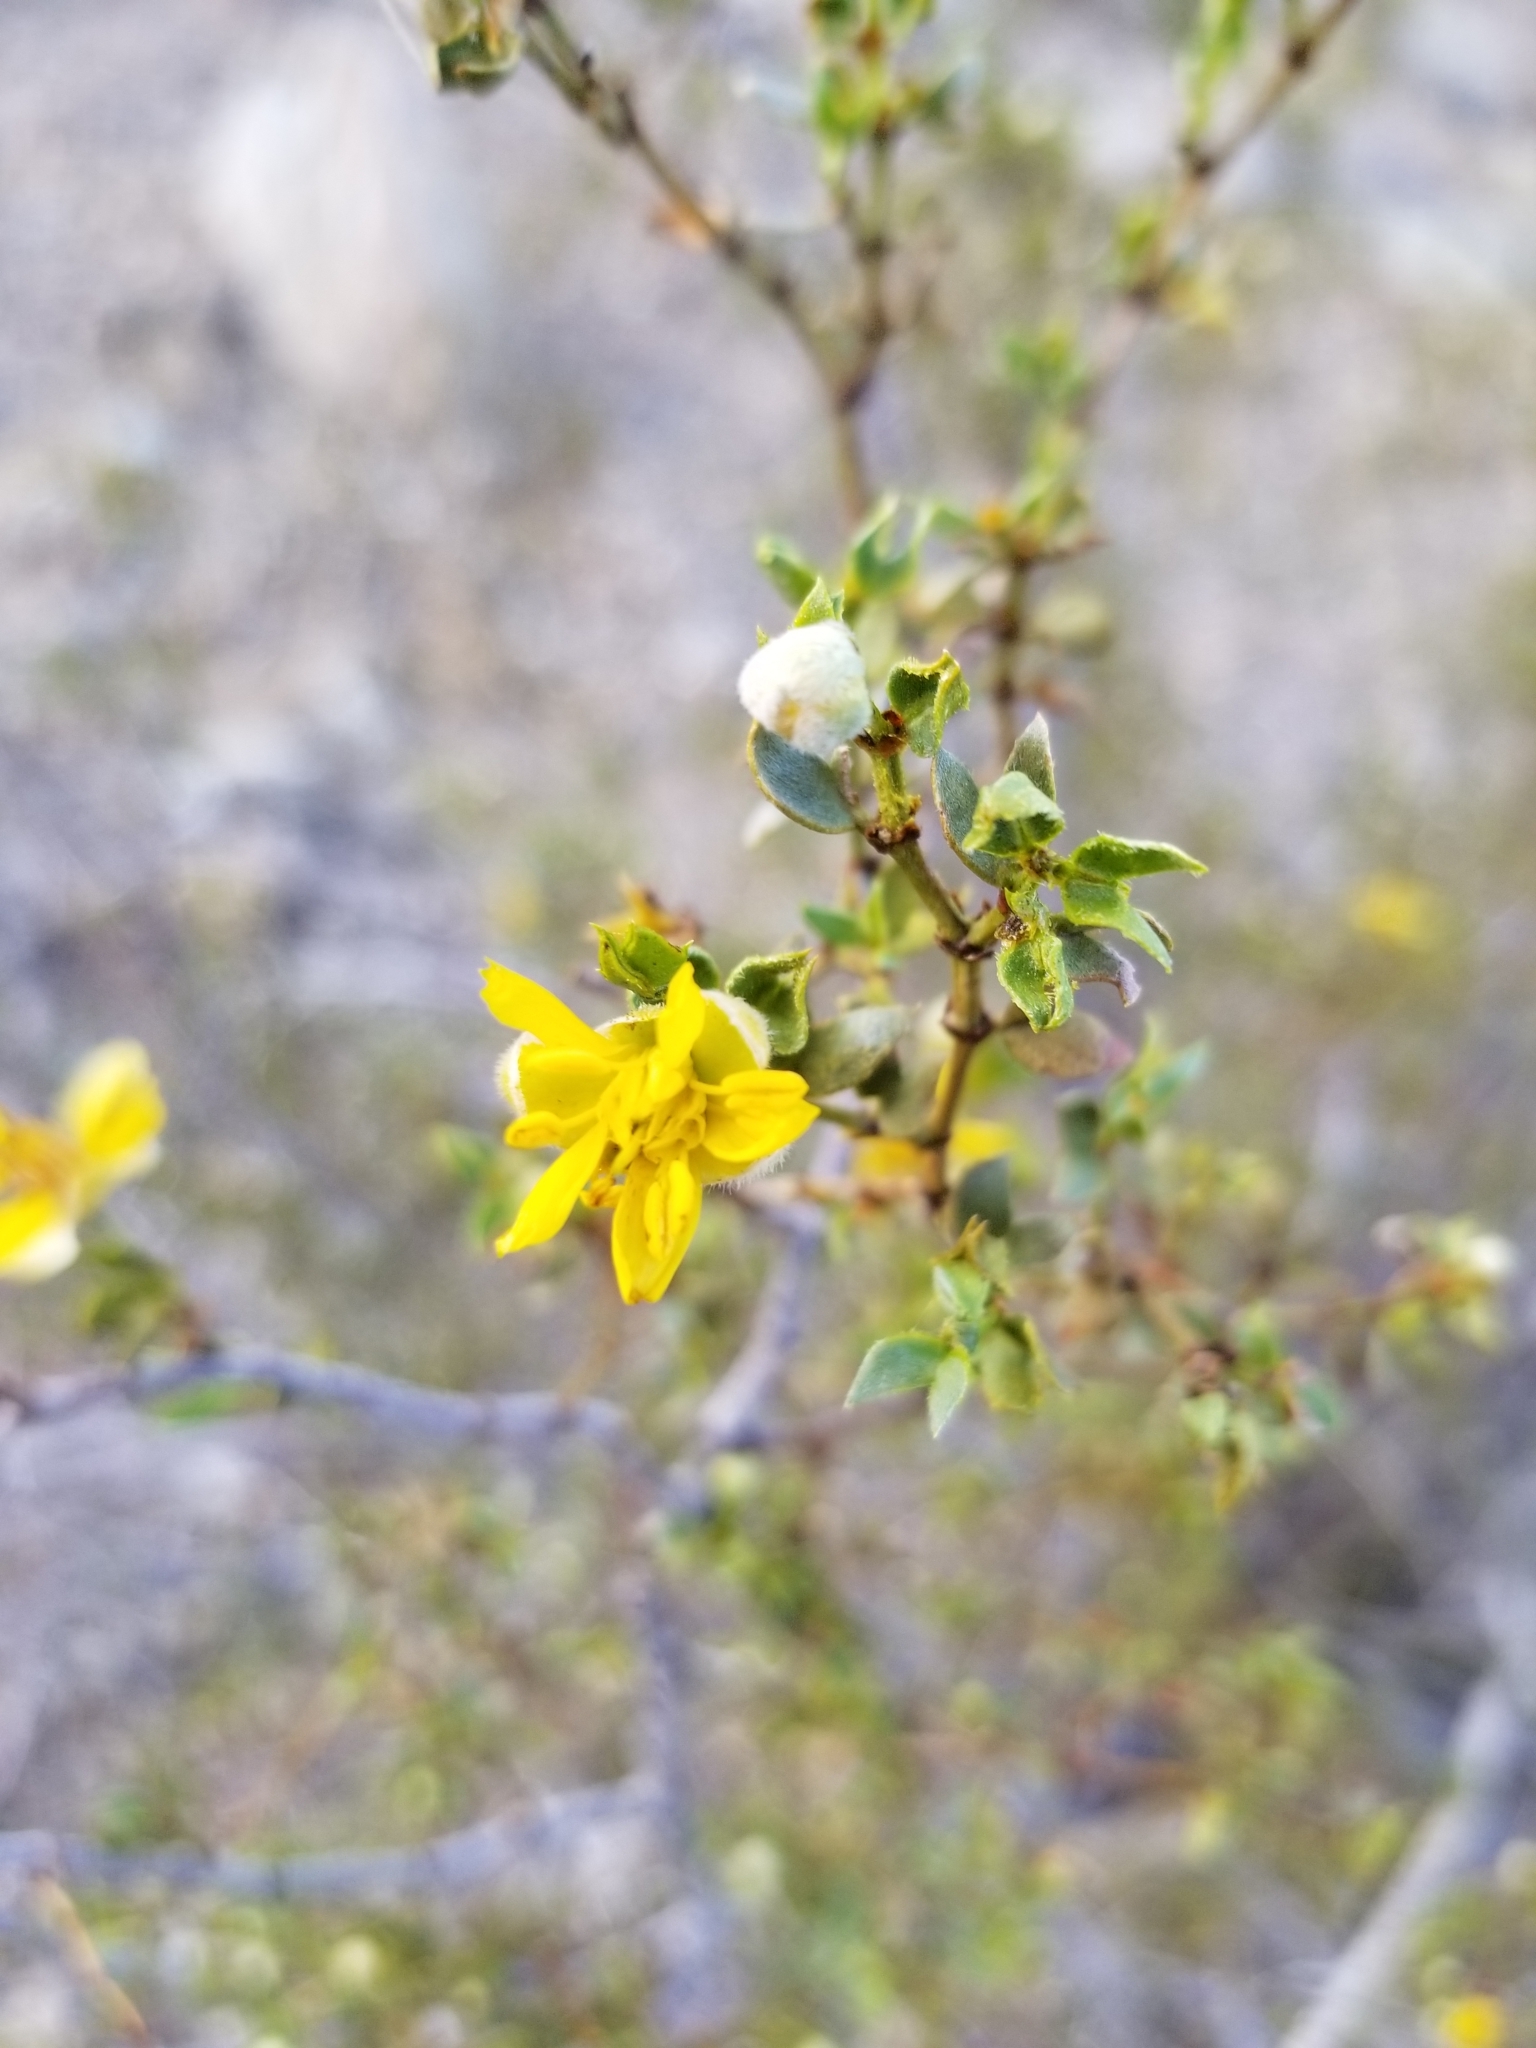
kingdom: Plantae
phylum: Tracheophyta
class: Magnoliopsida
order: Zygophyllales
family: Zygophyllaceae
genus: Larrea
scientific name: Larrea tridentata
